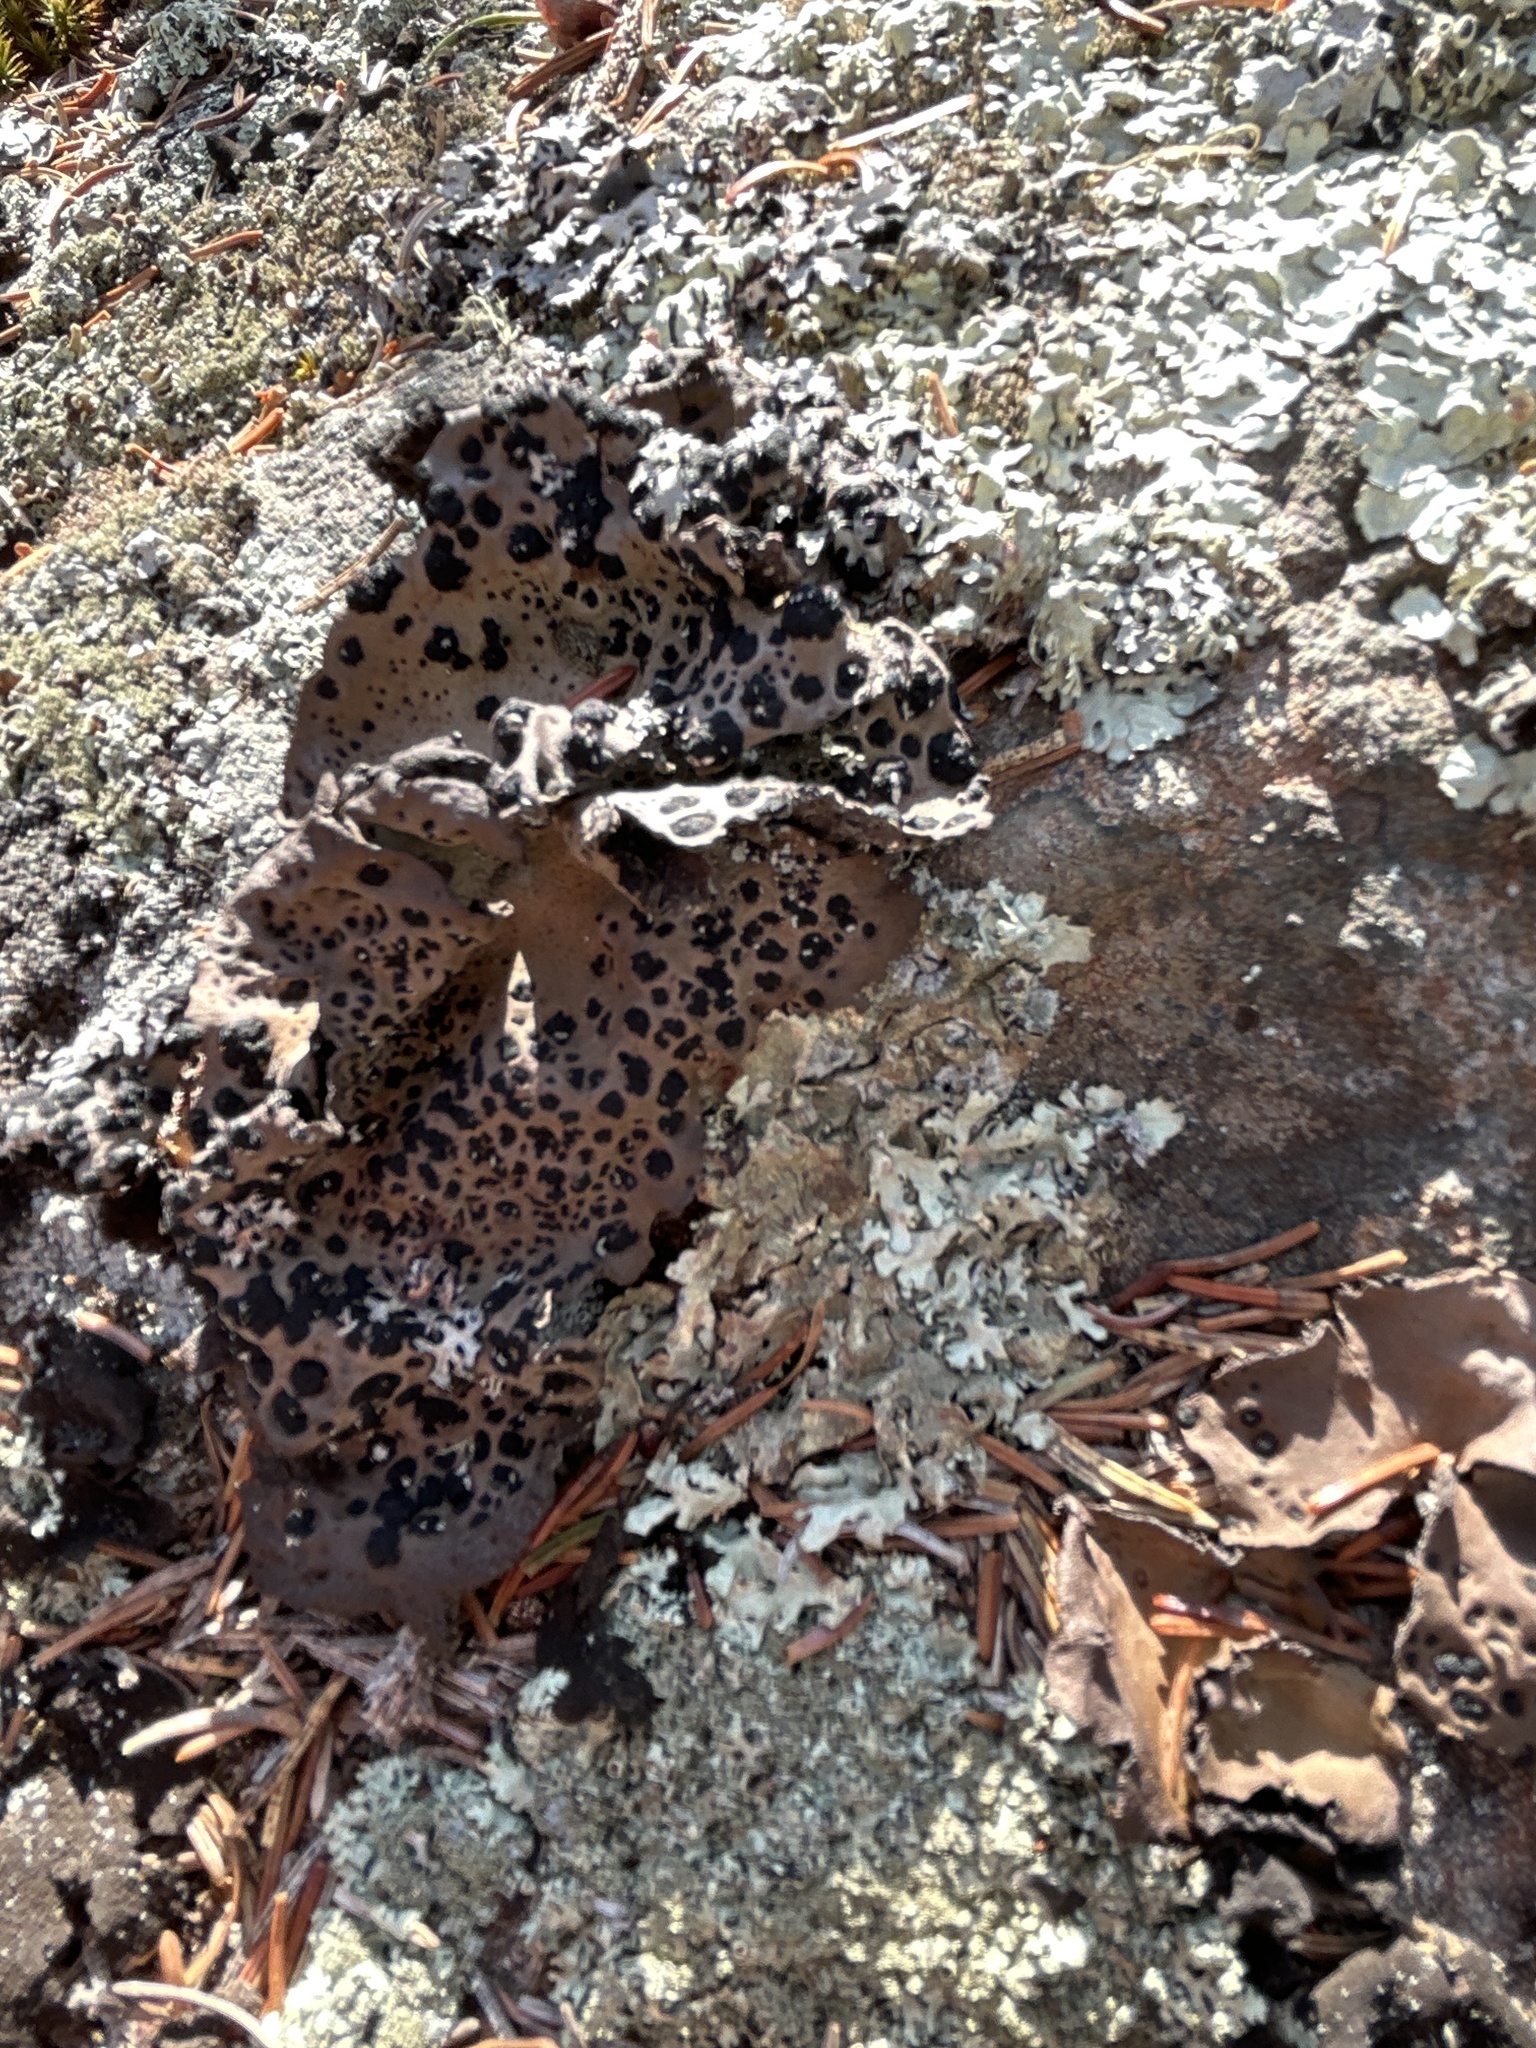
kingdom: Fungi
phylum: Ascomycota
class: Lecanoromycetes
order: Umbilicariales
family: Umbilicariaceae
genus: Umbilicaria
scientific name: Umbilicaria muhlenbergii
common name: Lesser rocktripe
